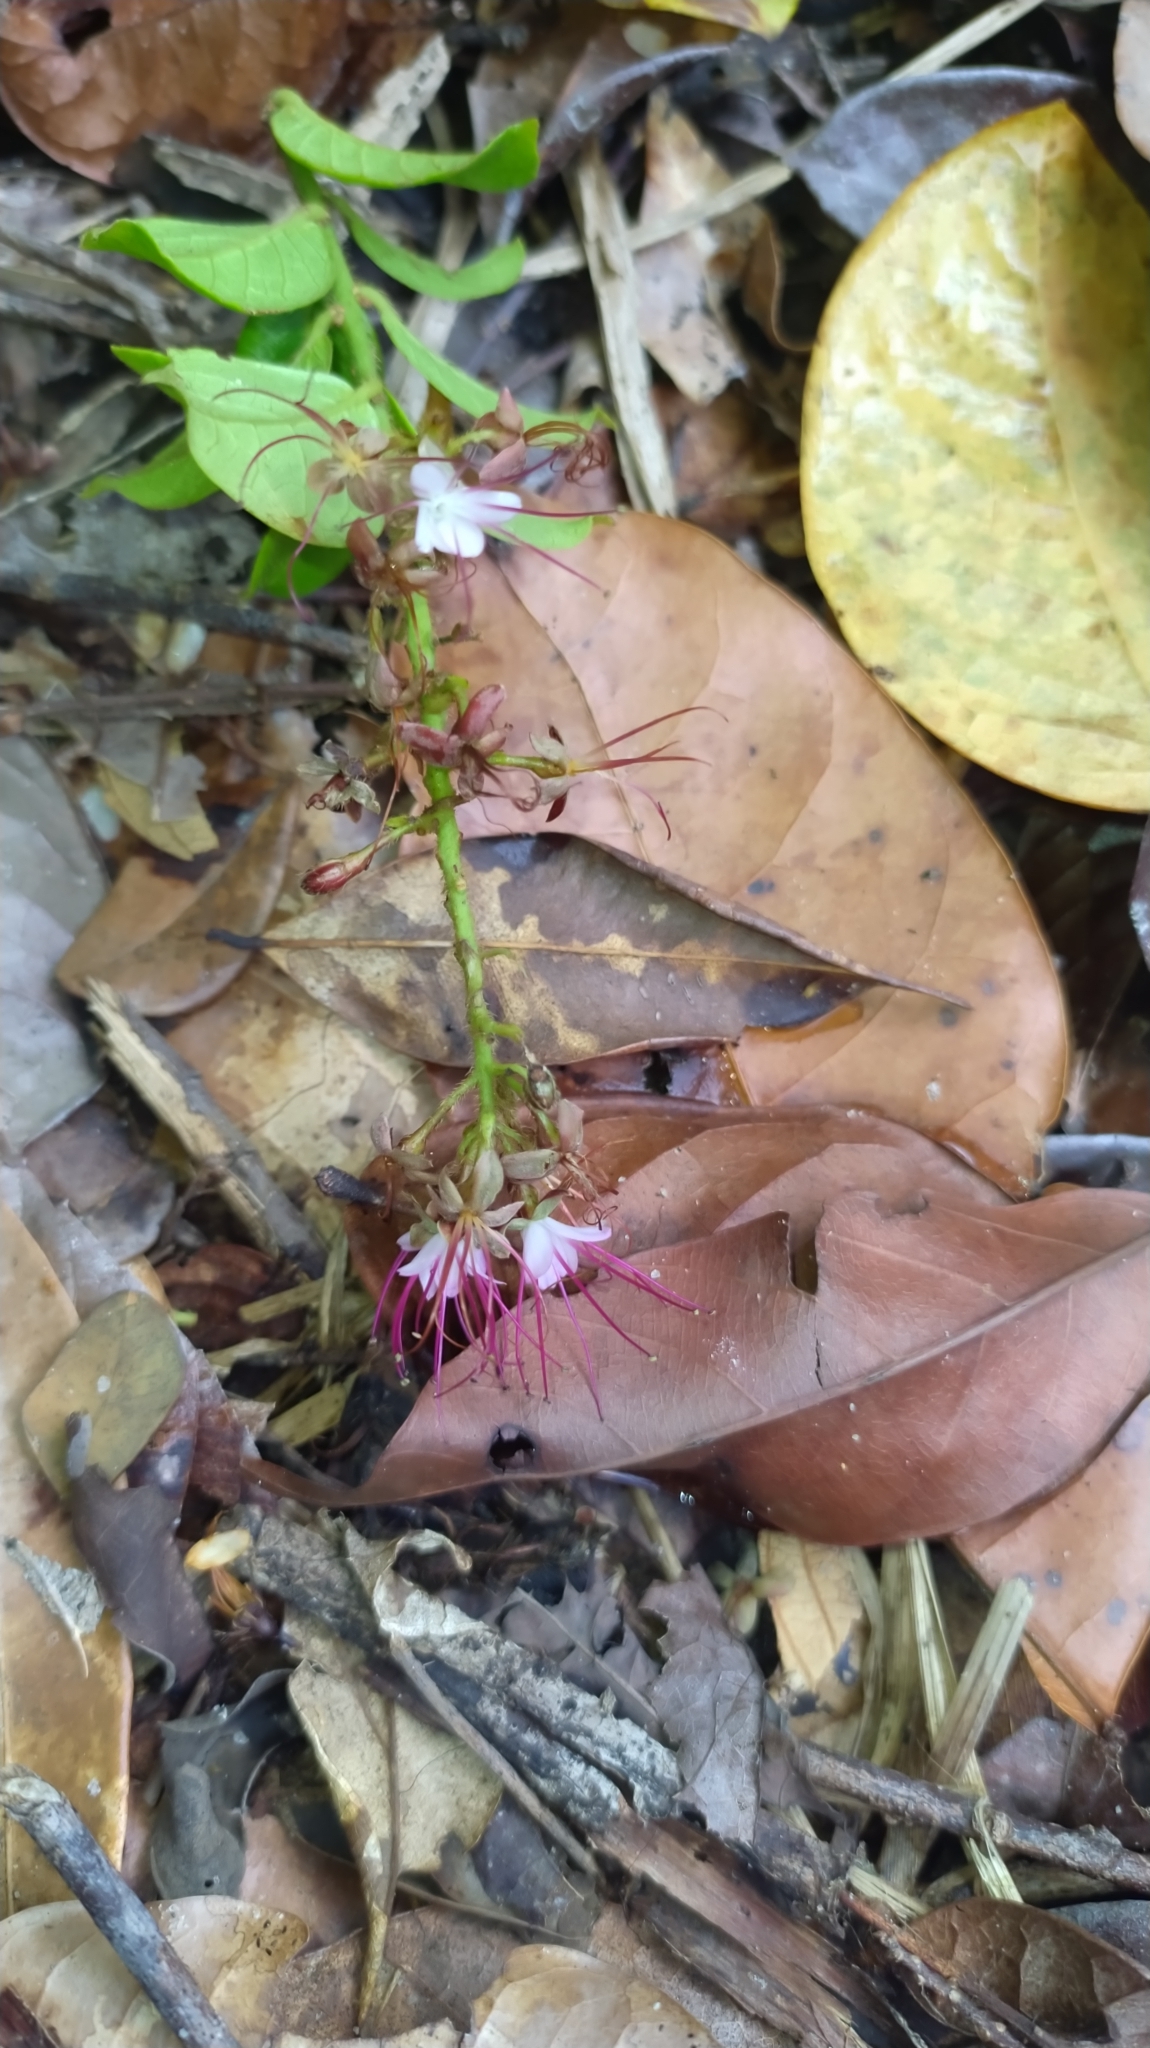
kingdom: Plantae
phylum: Tracheophyta
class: Magnoliopsida
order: Malpighiales
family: Chrysobalanaceae
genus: Hirtella
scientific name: Hirtella paniculata
